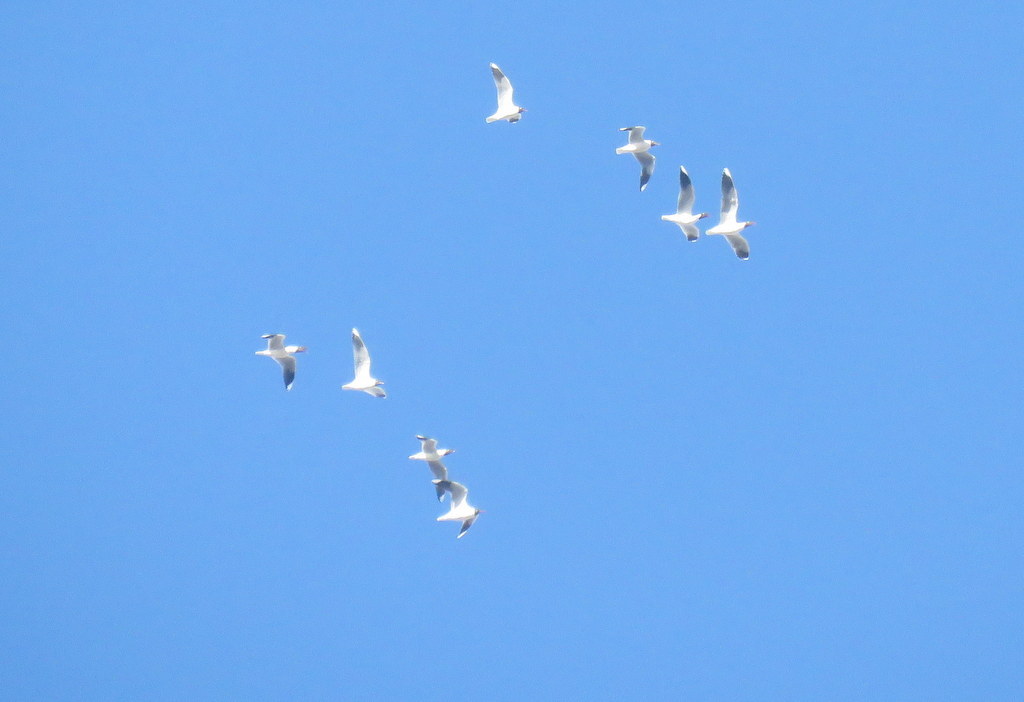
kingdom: Animalia
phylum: Chordata
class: Aves
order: Charadriiformes
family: Laridae
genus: Chroicocephalus
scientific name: Chroicocephalus maculipennis
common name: Brown-hooded gull
